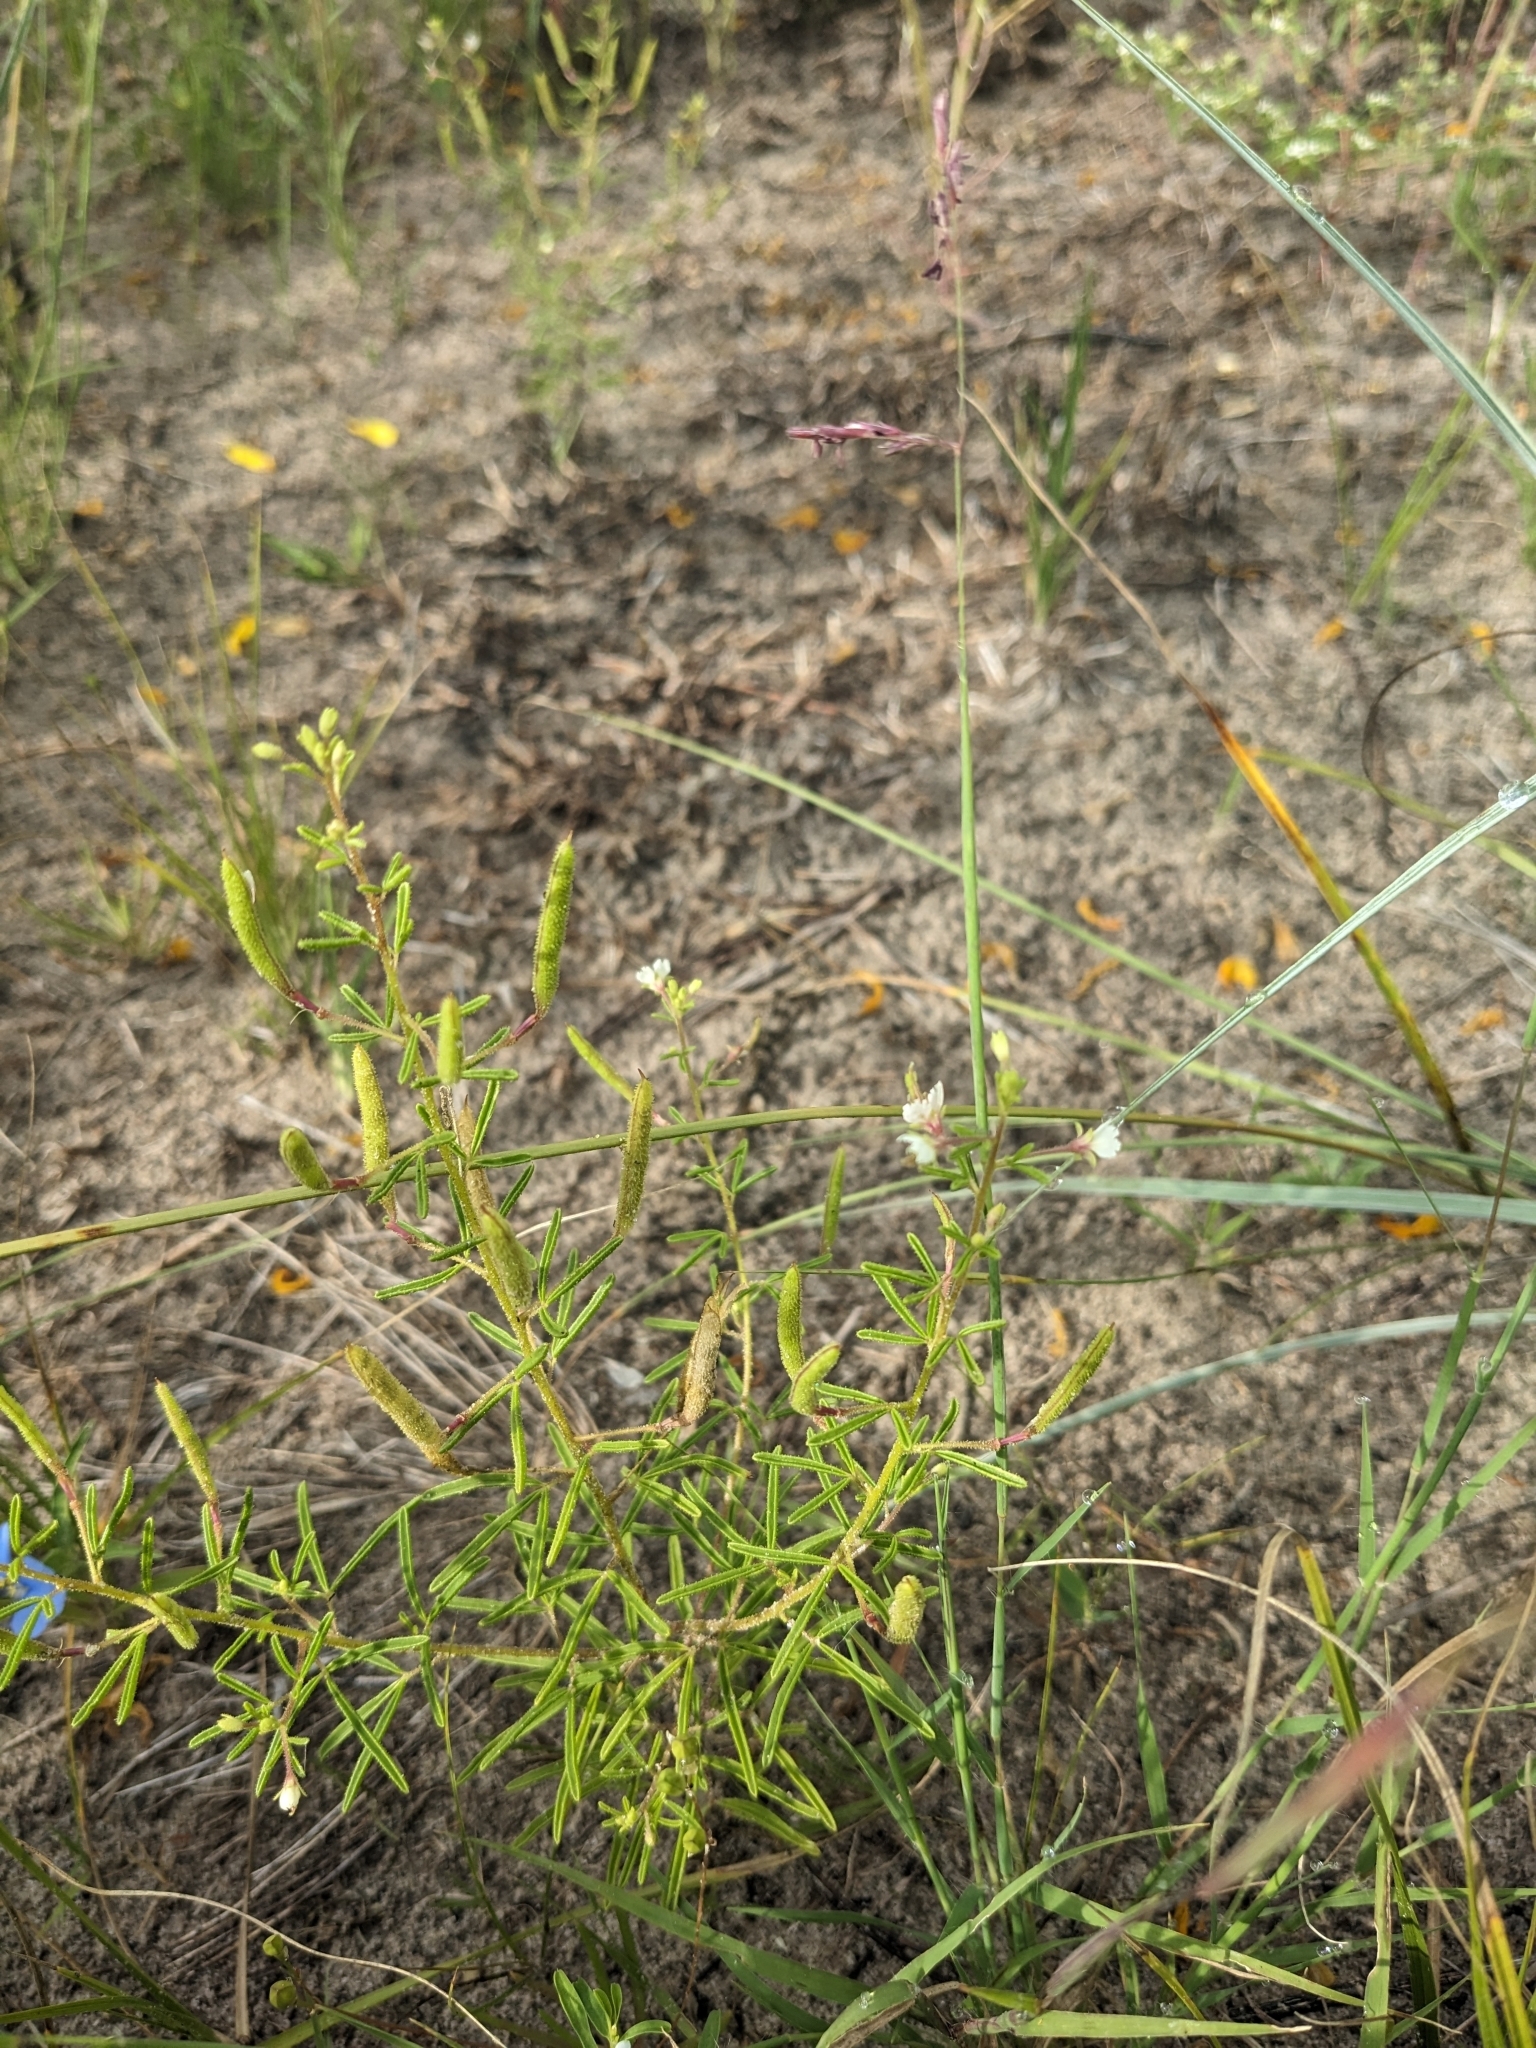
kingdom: Plantae
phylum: Tracheophyta
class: Magnoliopsida
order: Brassicales
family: Cleomaceae
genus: Polanisia
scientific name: Polanisia jamesii
